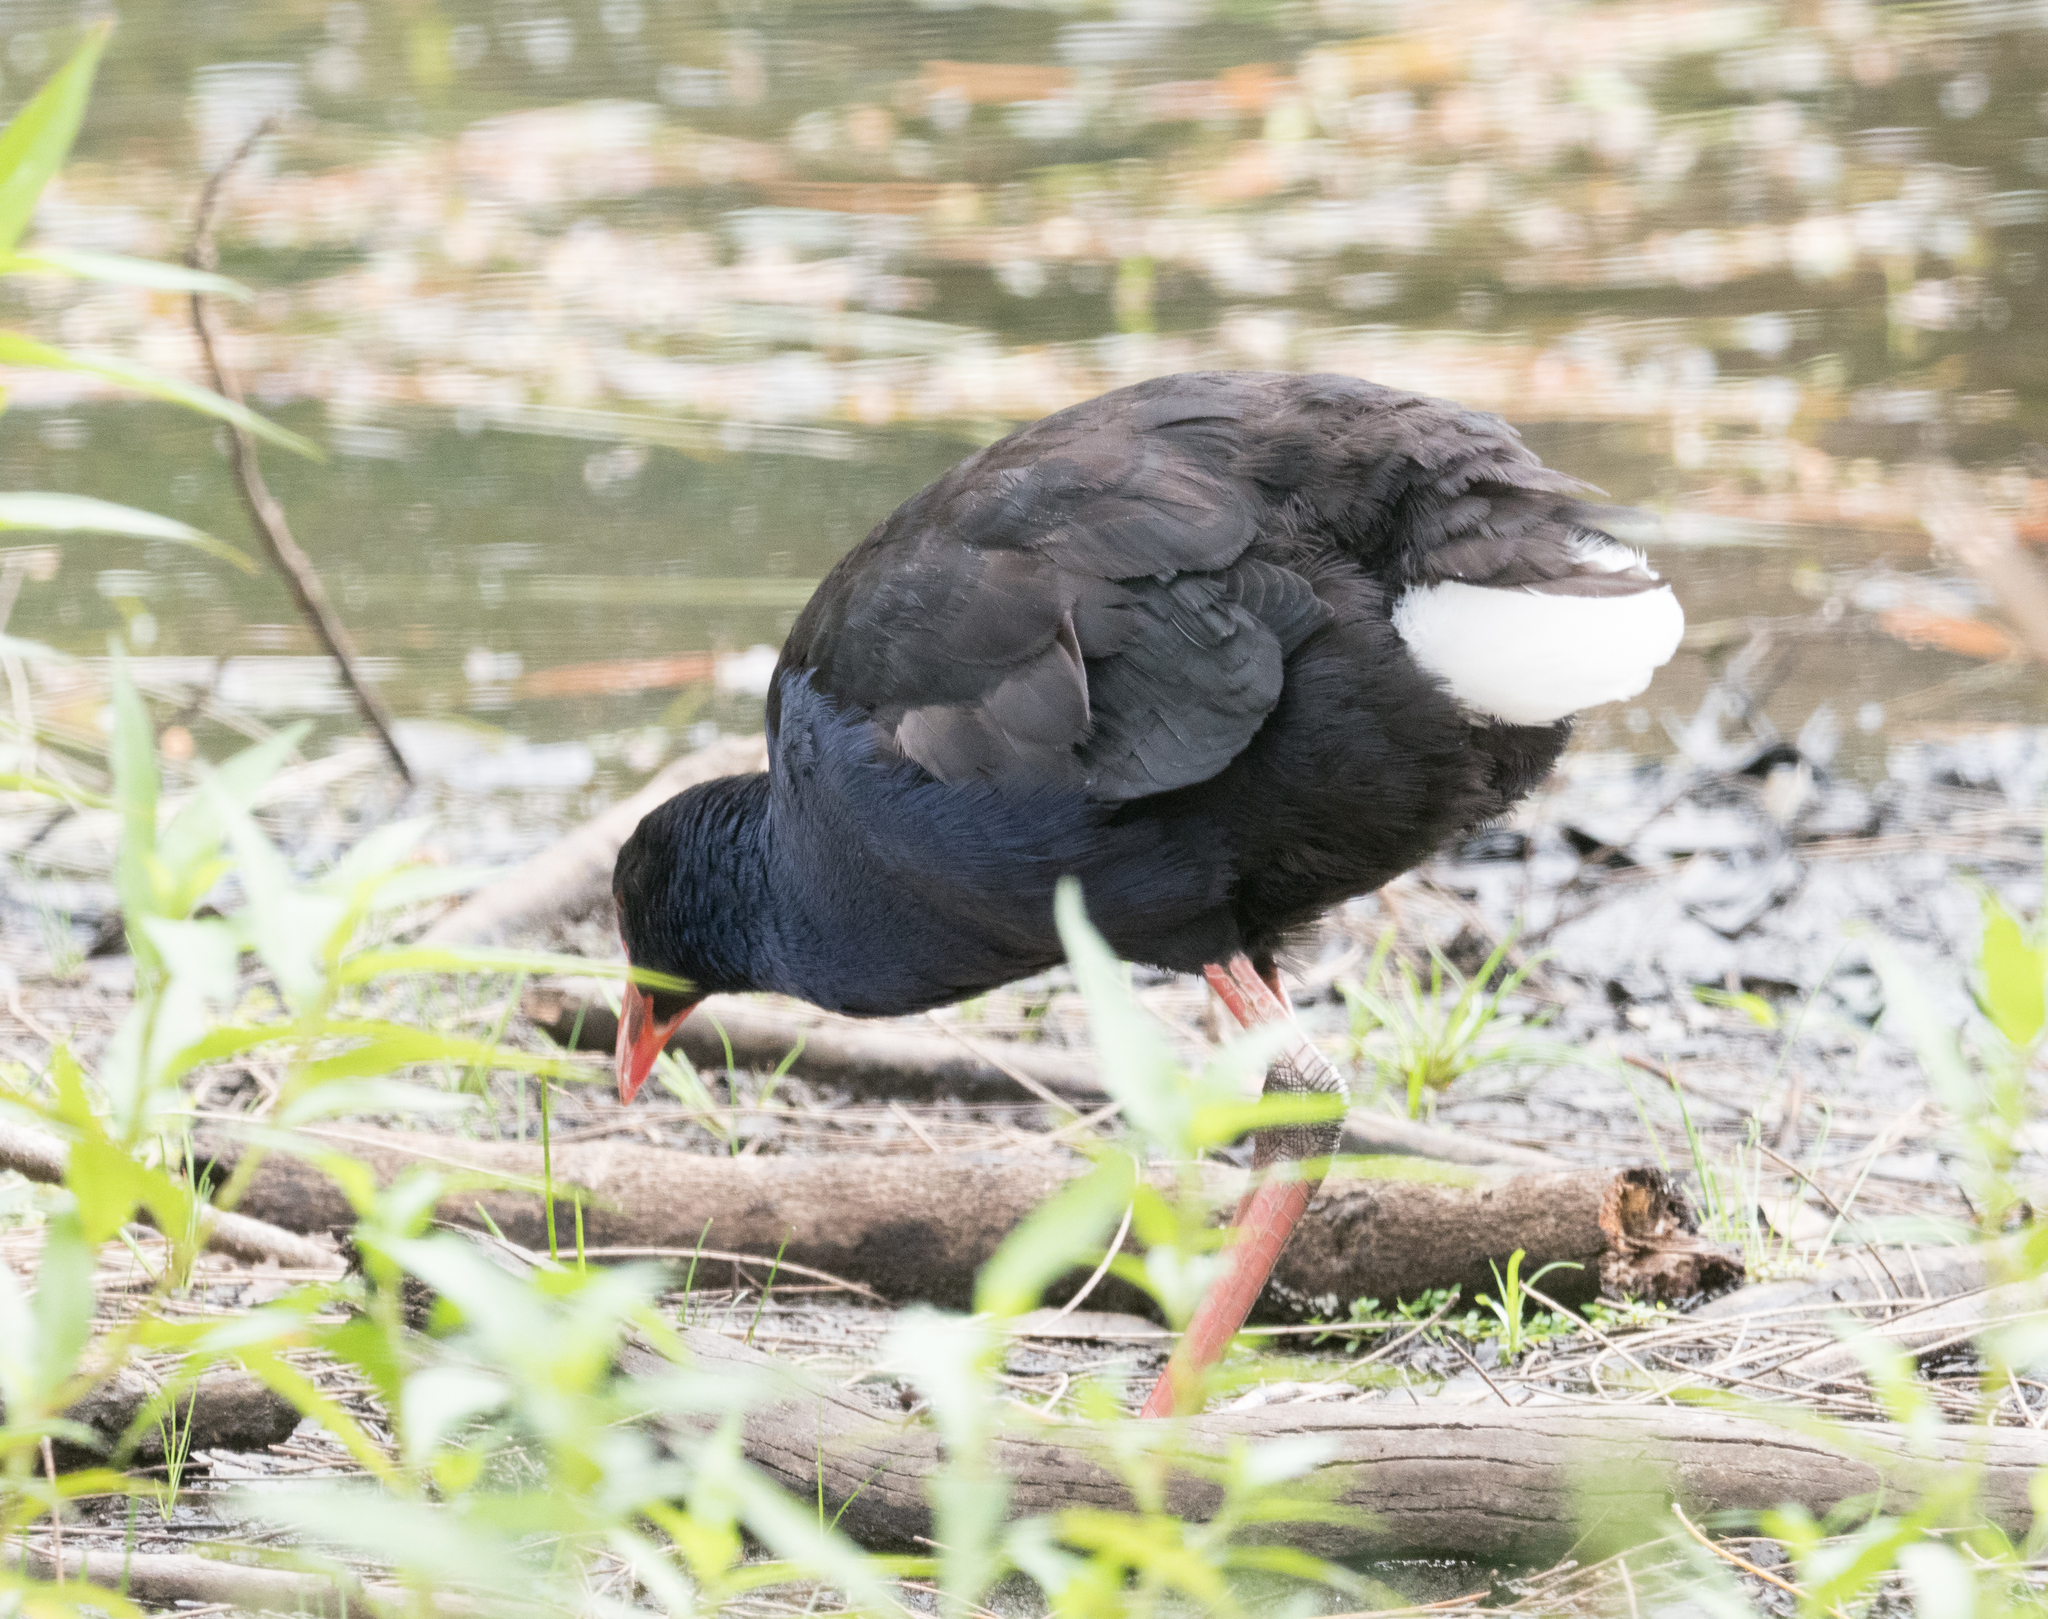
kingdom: Animalia
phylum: Chordata
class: Aves
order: Gruiformes
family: Rallidae
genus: Gallinula
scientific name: Gallinula tenebrosa
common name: Dusky moorhen
